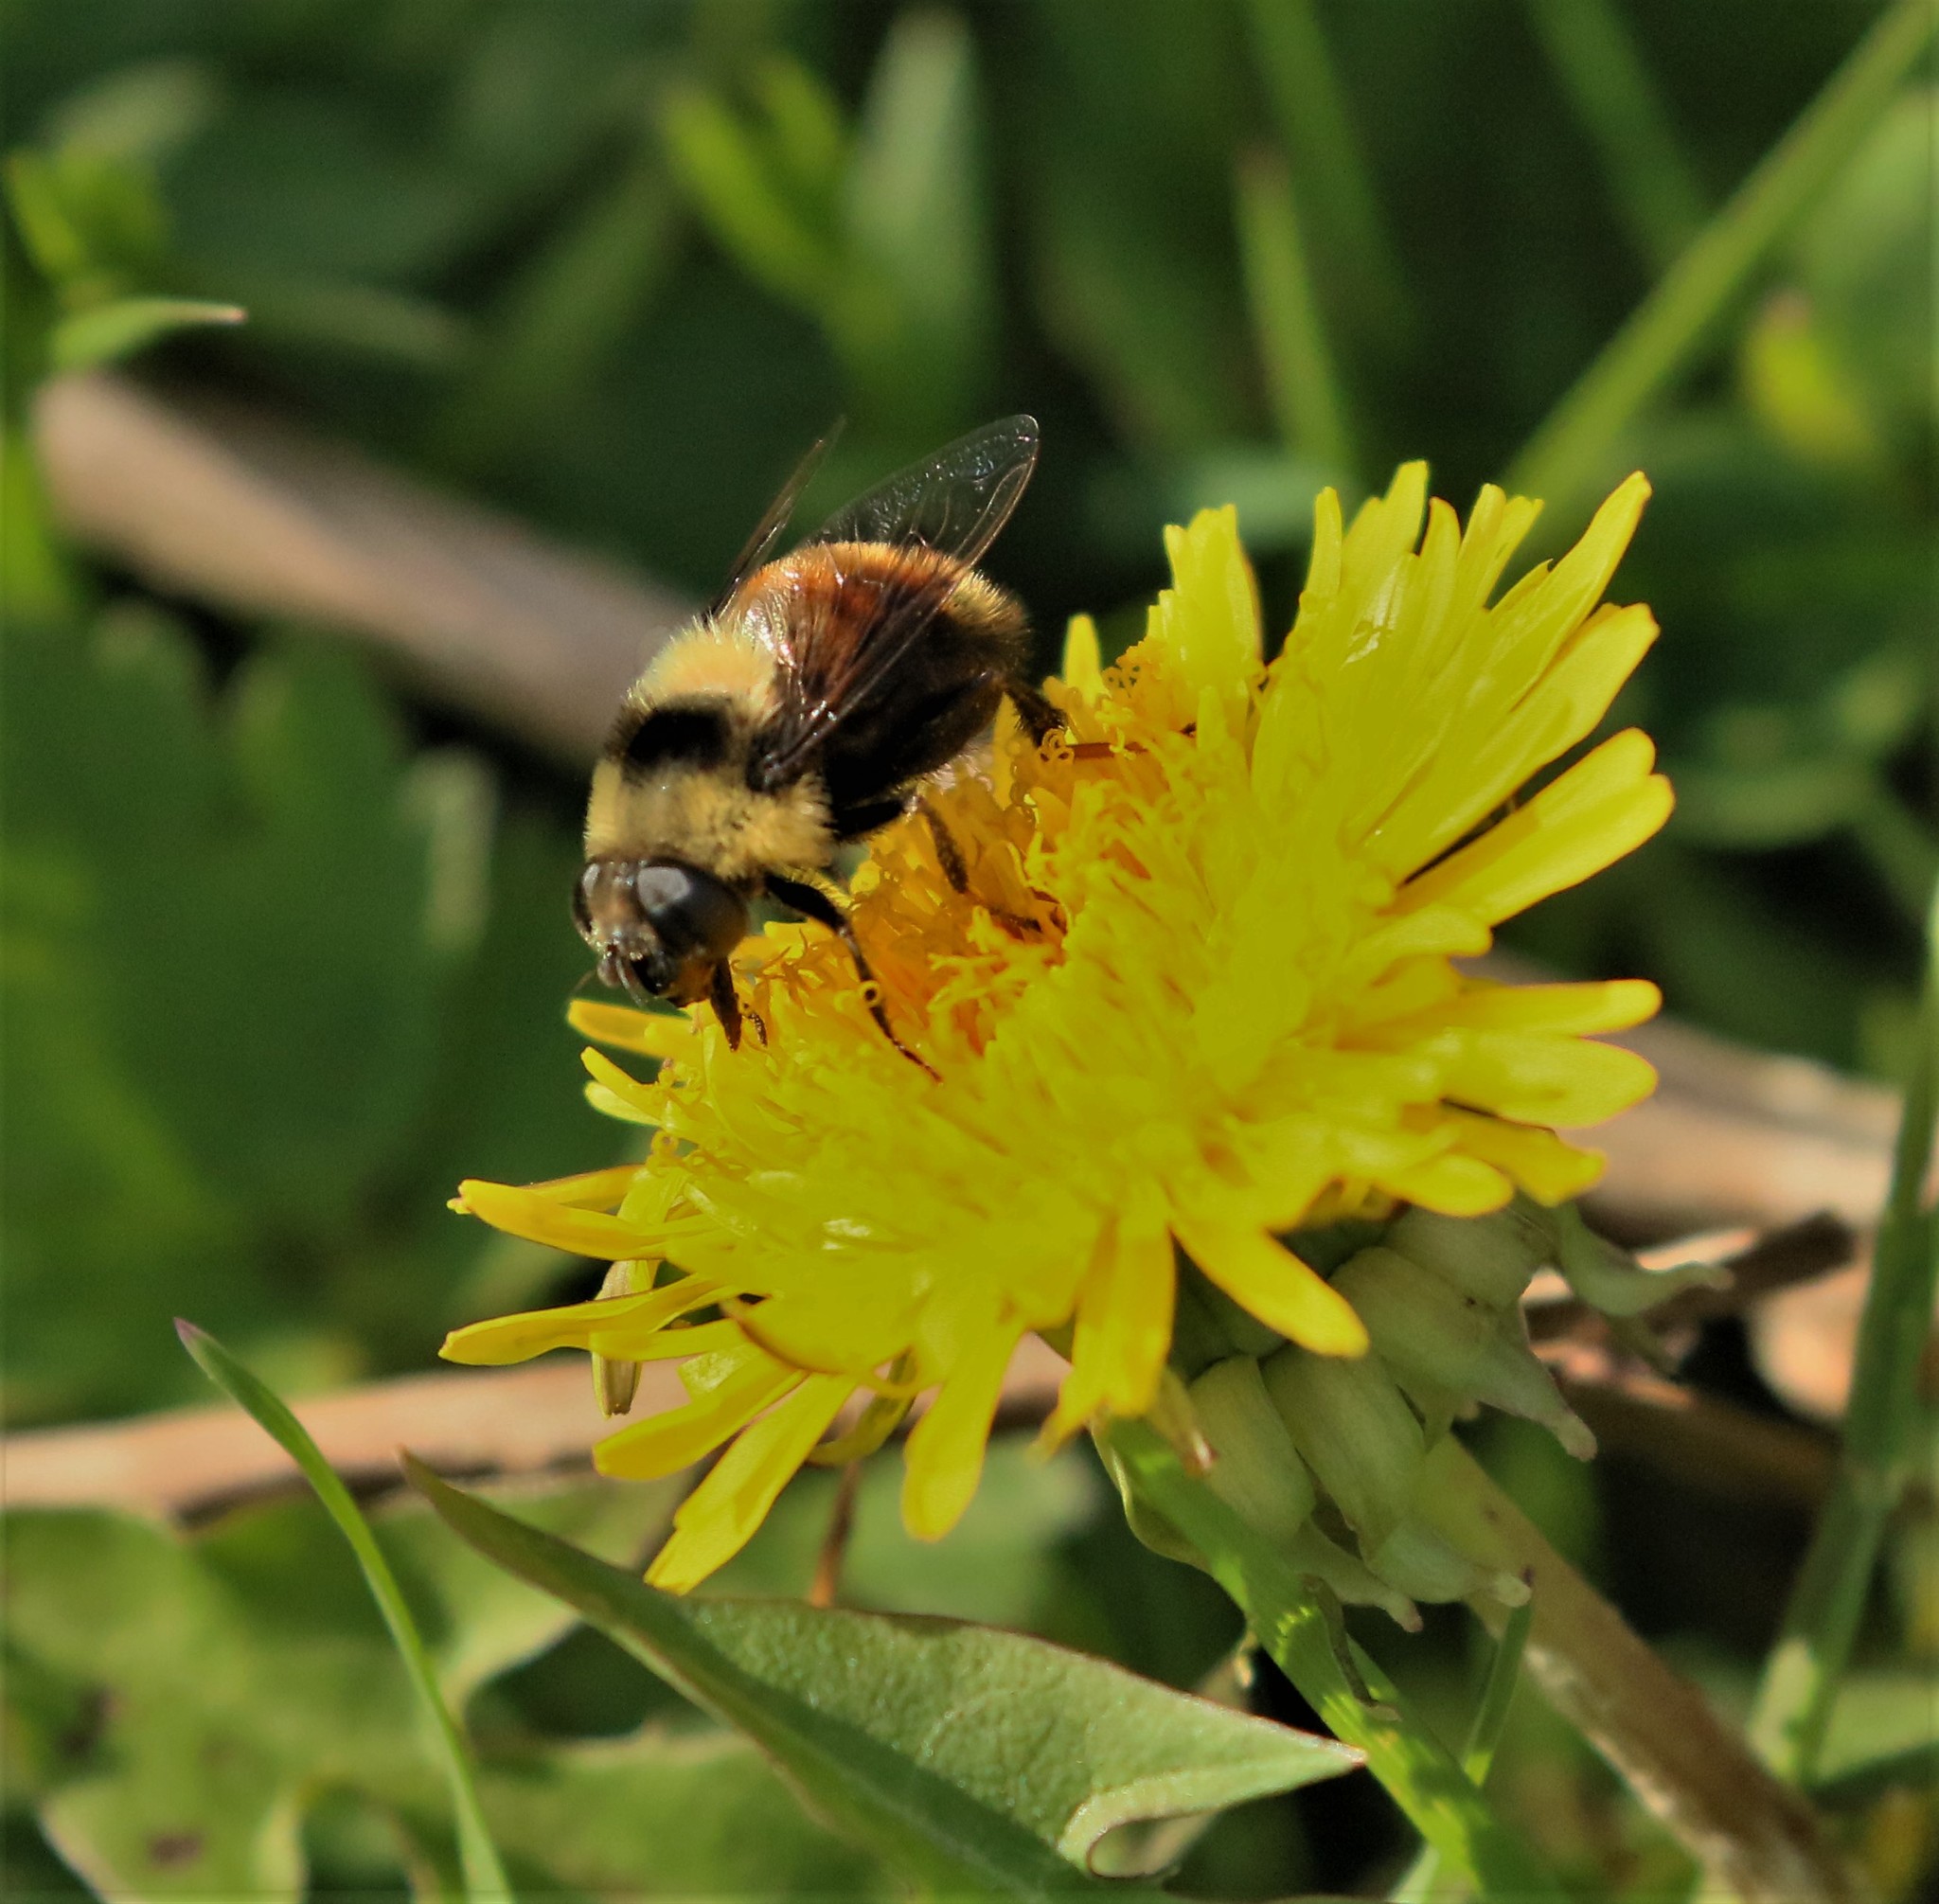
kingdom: Animalia
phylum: Arthropoda
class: Insecta
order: Diptera
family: Syrphidae
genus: Eristalis
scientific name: Eristalis flavipes
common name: Orange-legged drone fly
